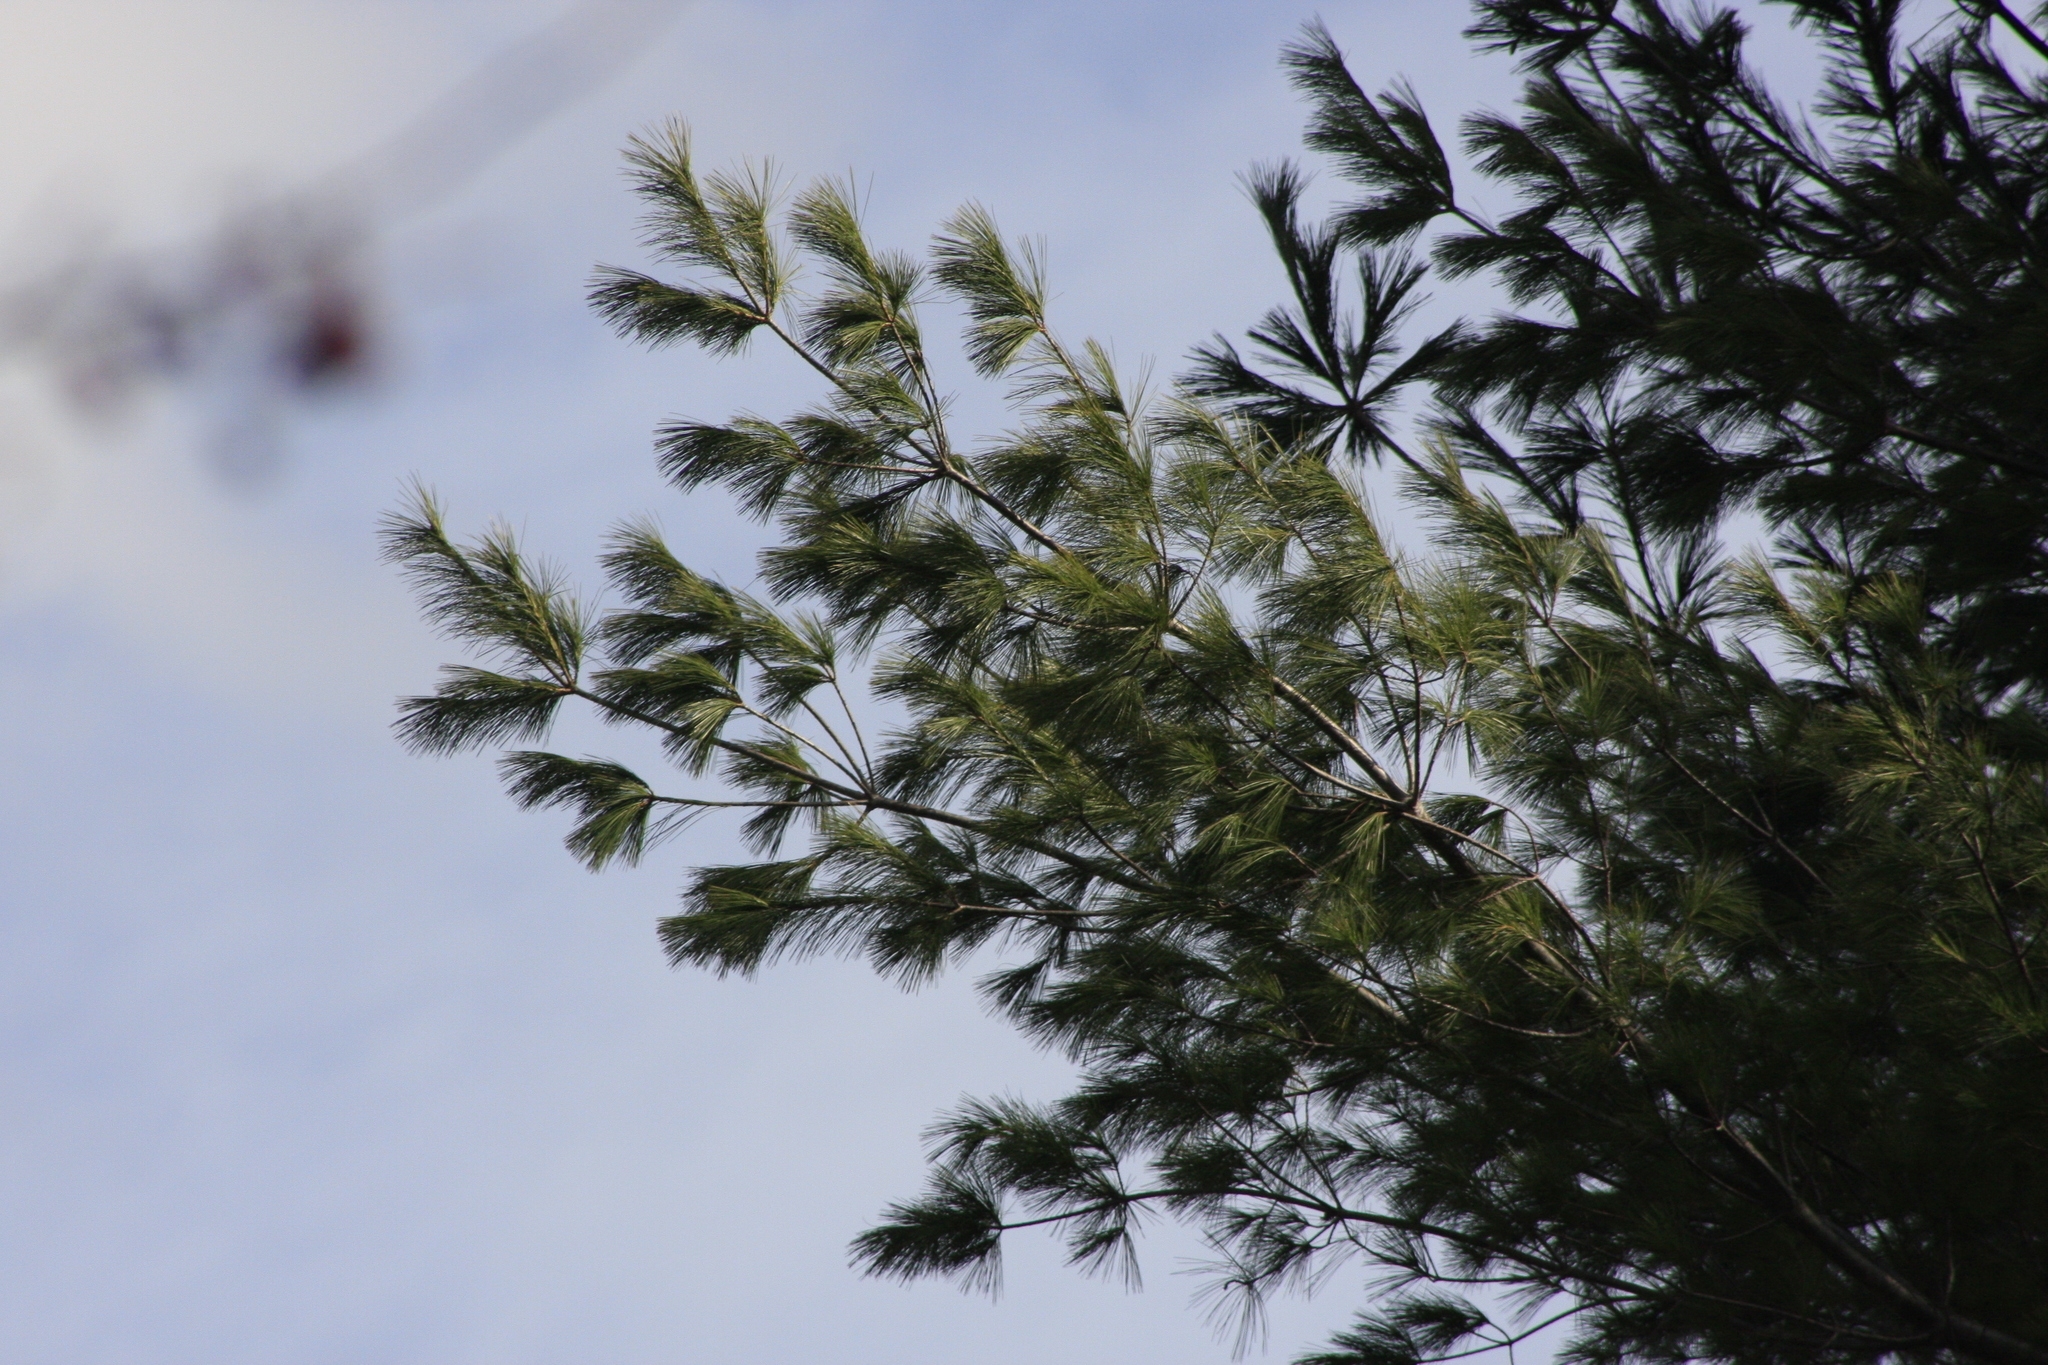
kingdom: Plantae
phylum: Tracheophyta
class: Pinopsida
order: Pinales
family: Pinaceae
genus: Pinus
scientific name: Pinus strobus
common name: Weymouth pine
